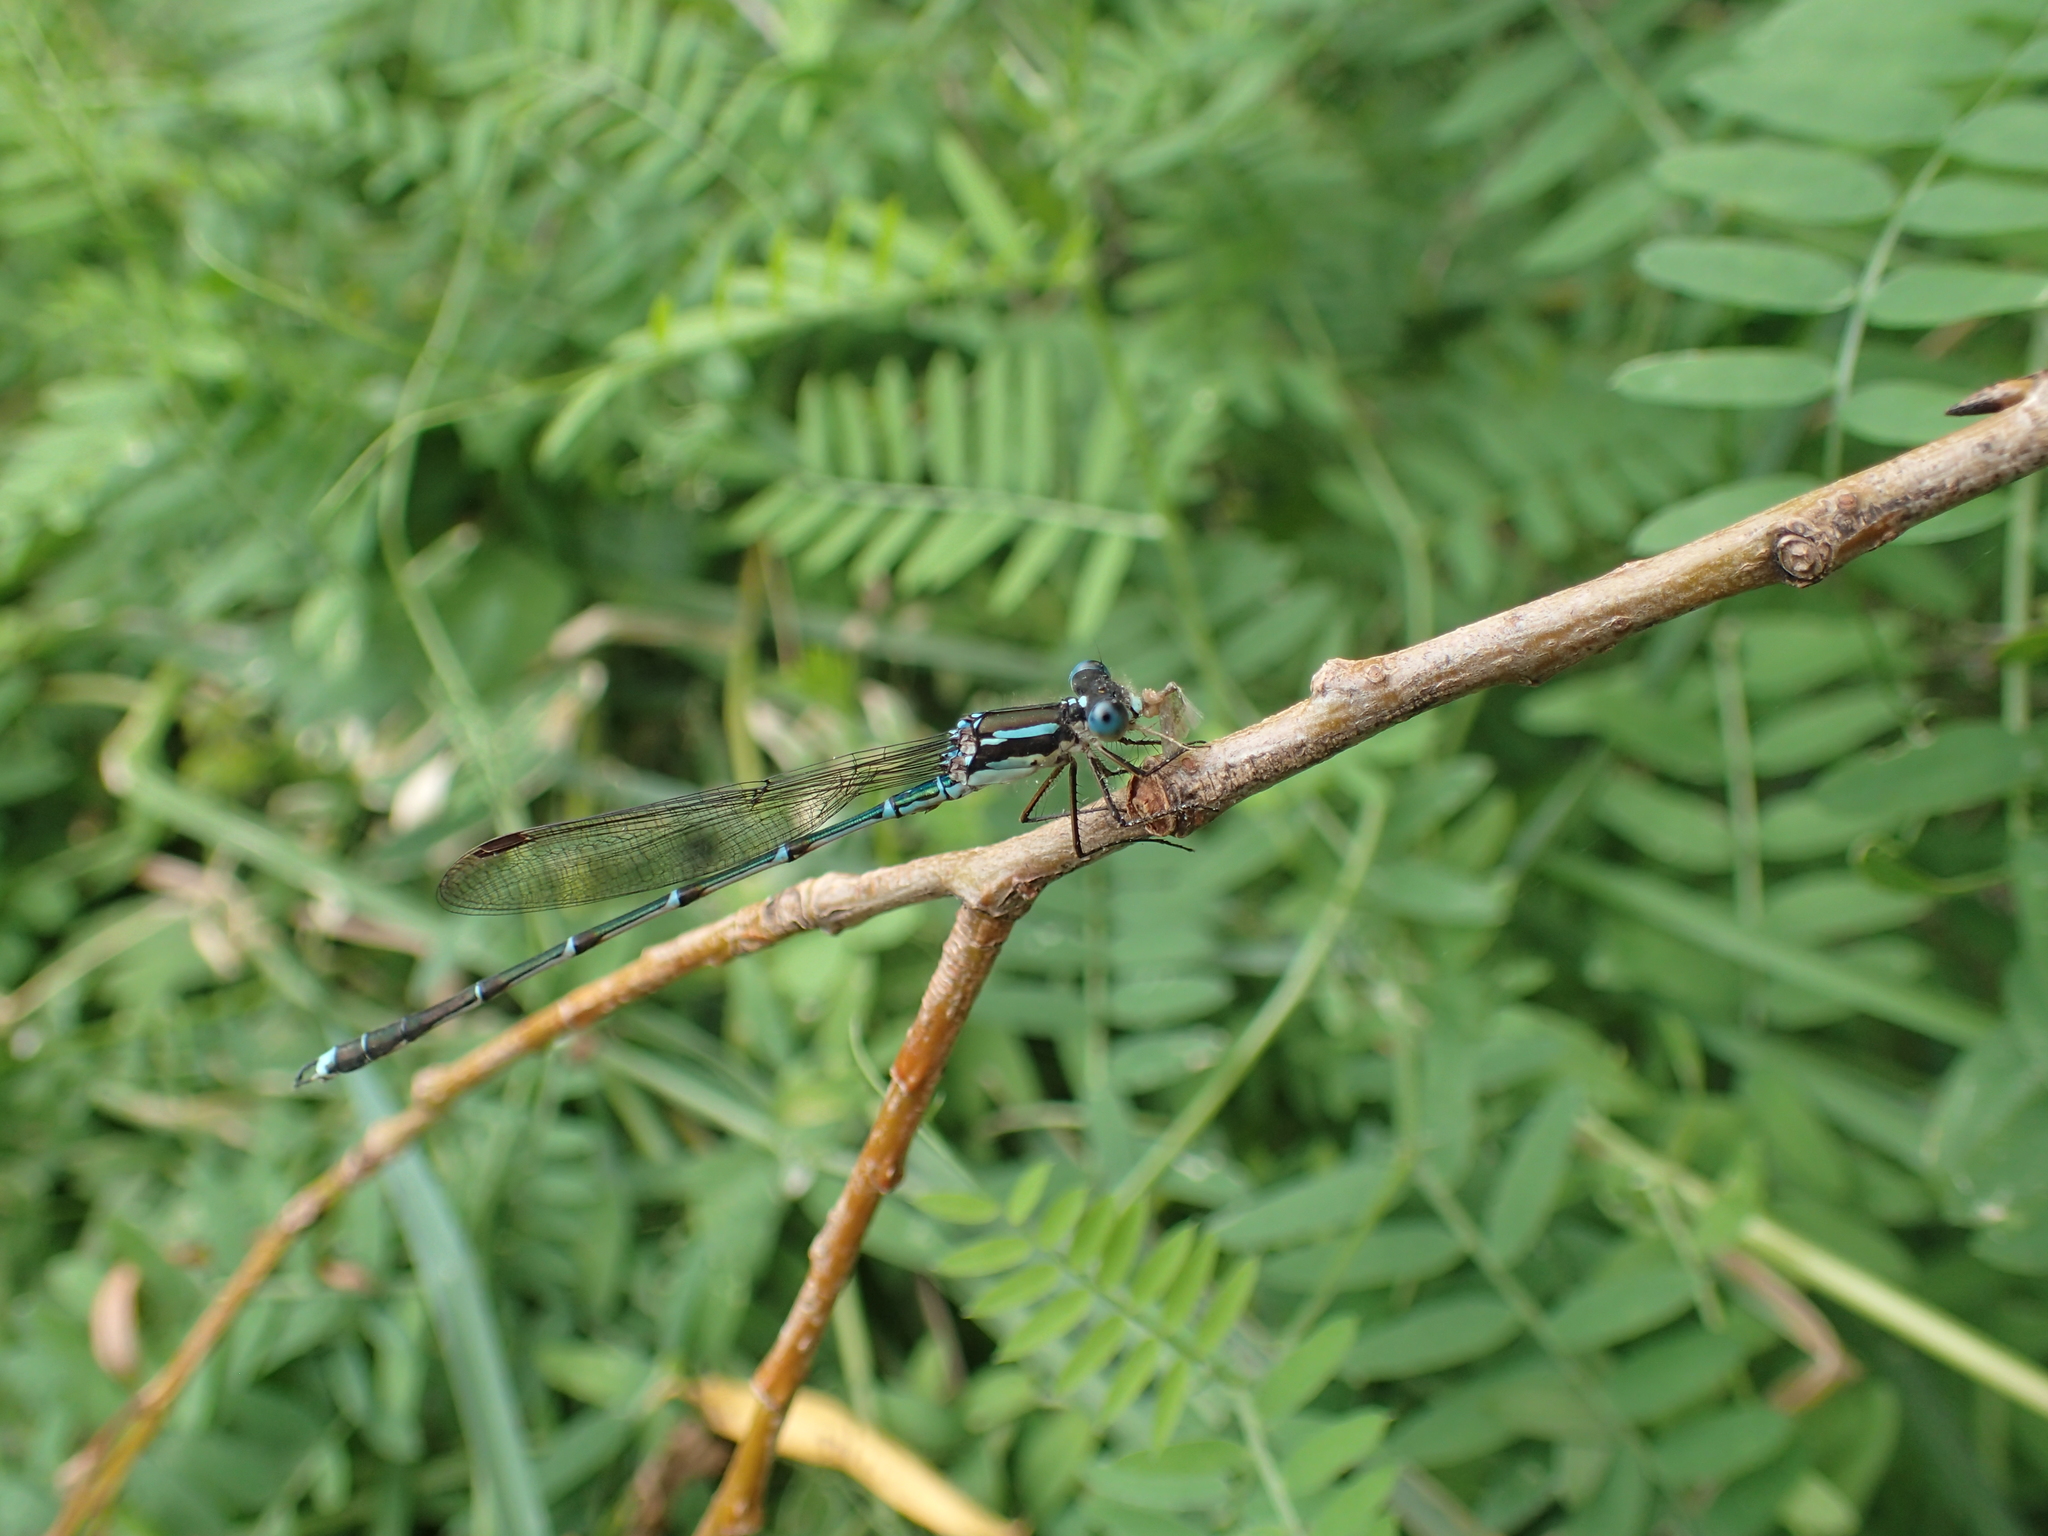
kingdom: Animalia
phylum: Arthropoda
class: Insecta
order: Odonata
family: Lestidae
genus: Austrolestes
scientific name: Austrolestes colensonis
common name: Blue damselfly
